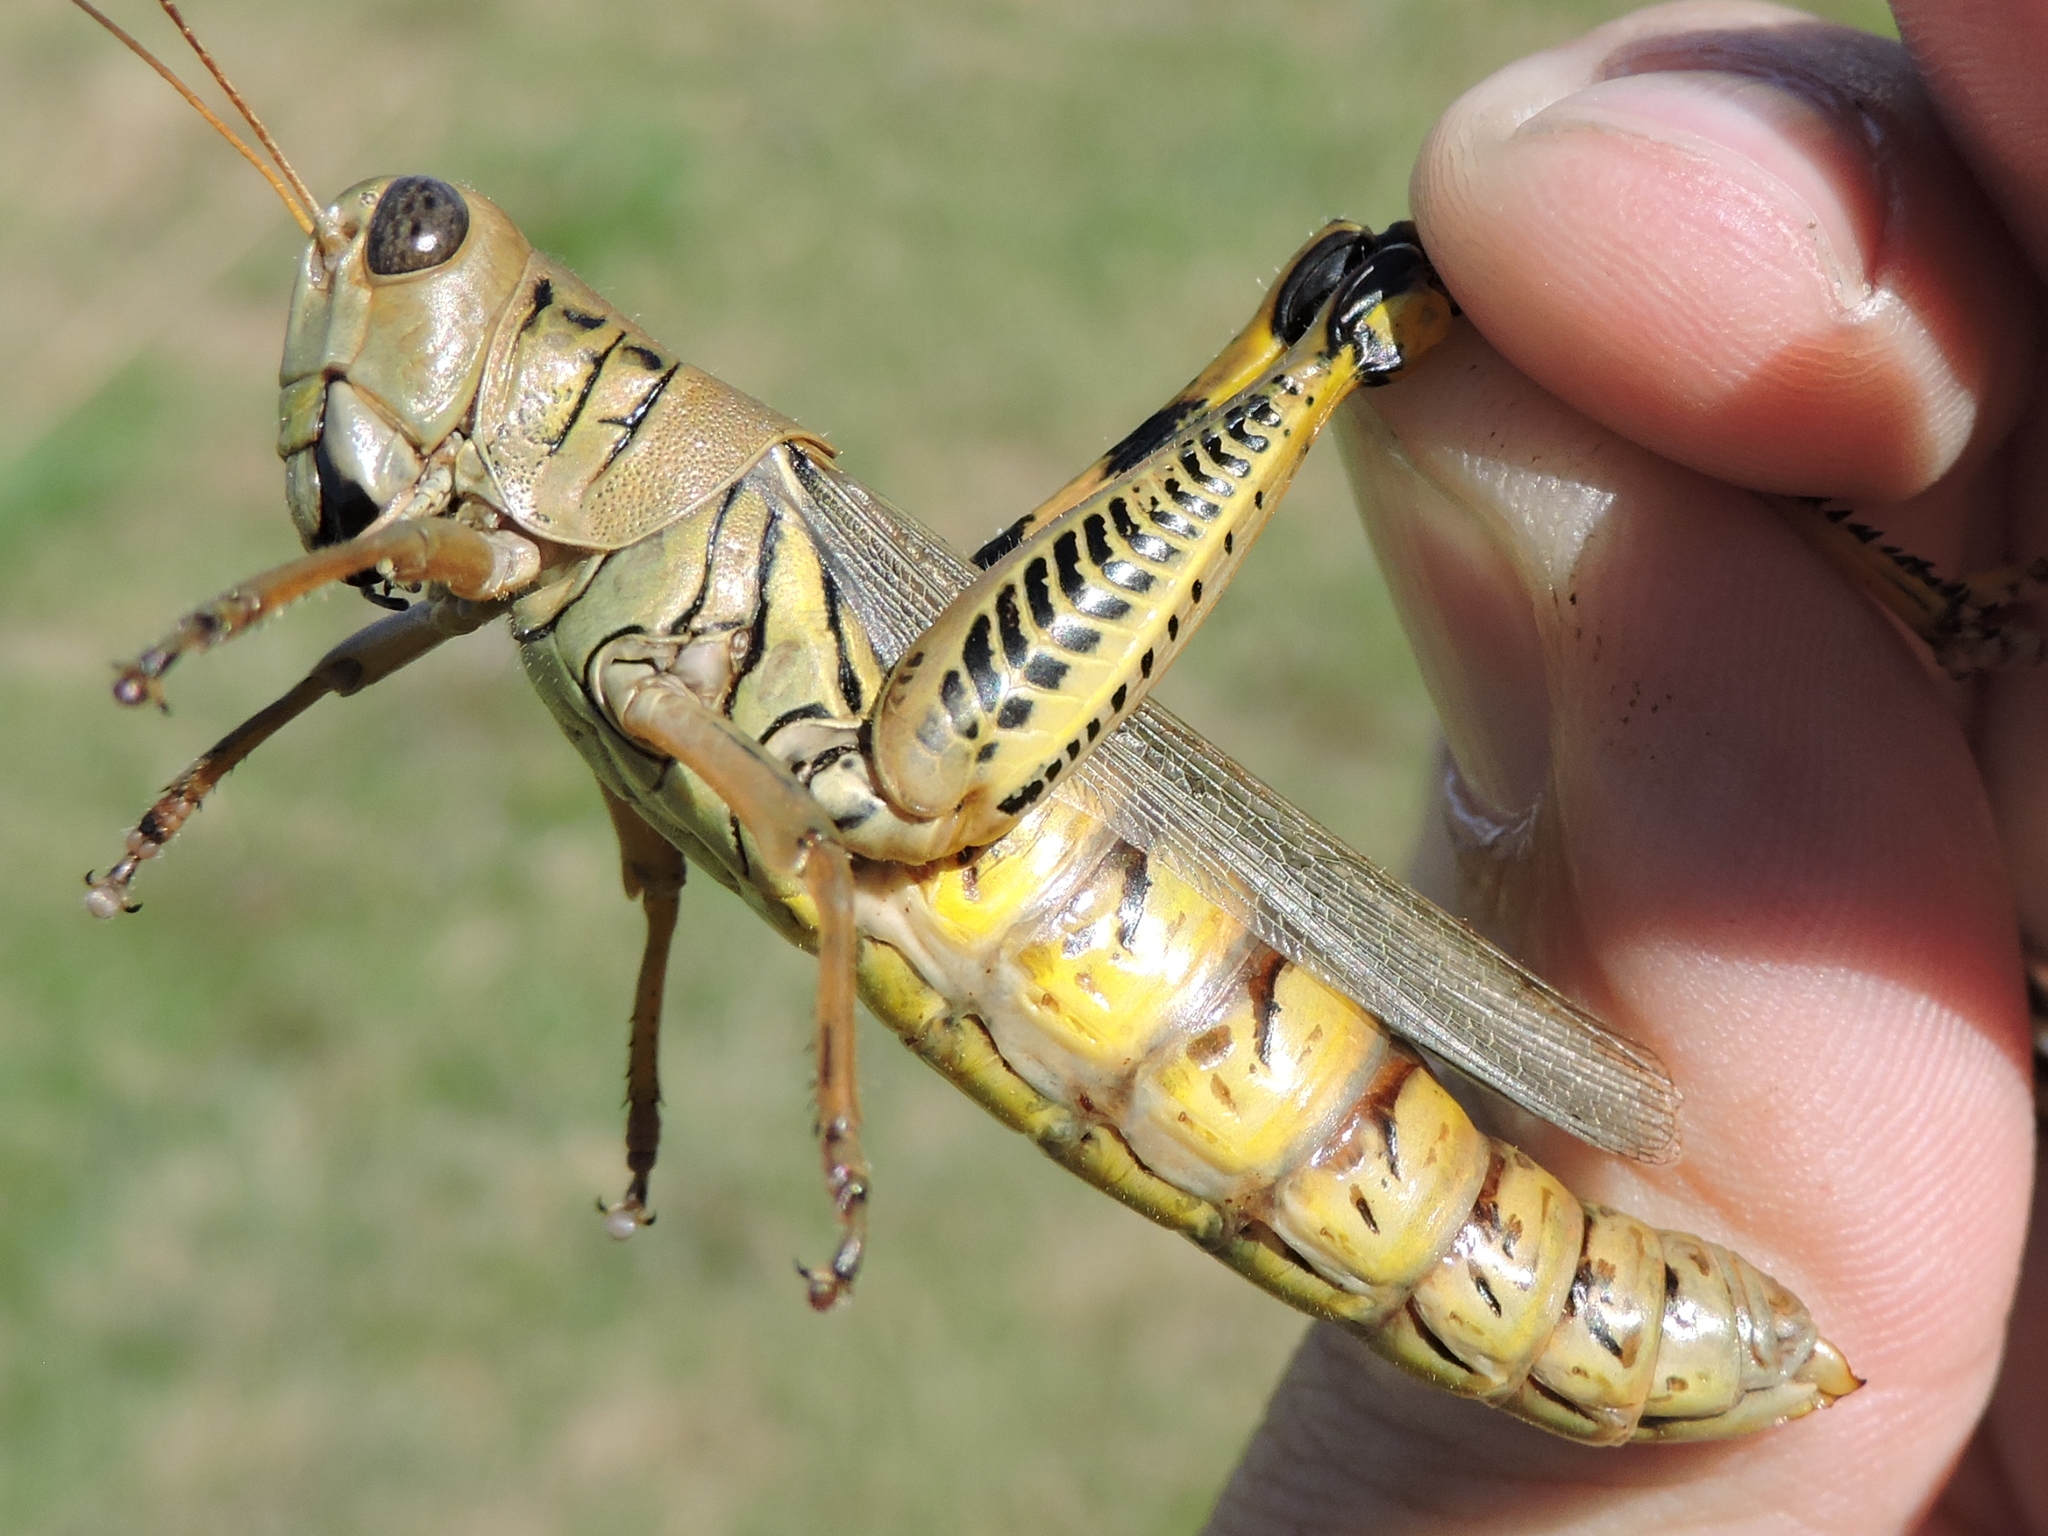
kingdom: Animalia
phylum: Arthropoda
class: Insecta
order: Orthoptera
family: Acrididae
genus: Melanoplus
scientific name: Melanoplus differentialis
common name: Differential grasshopper
